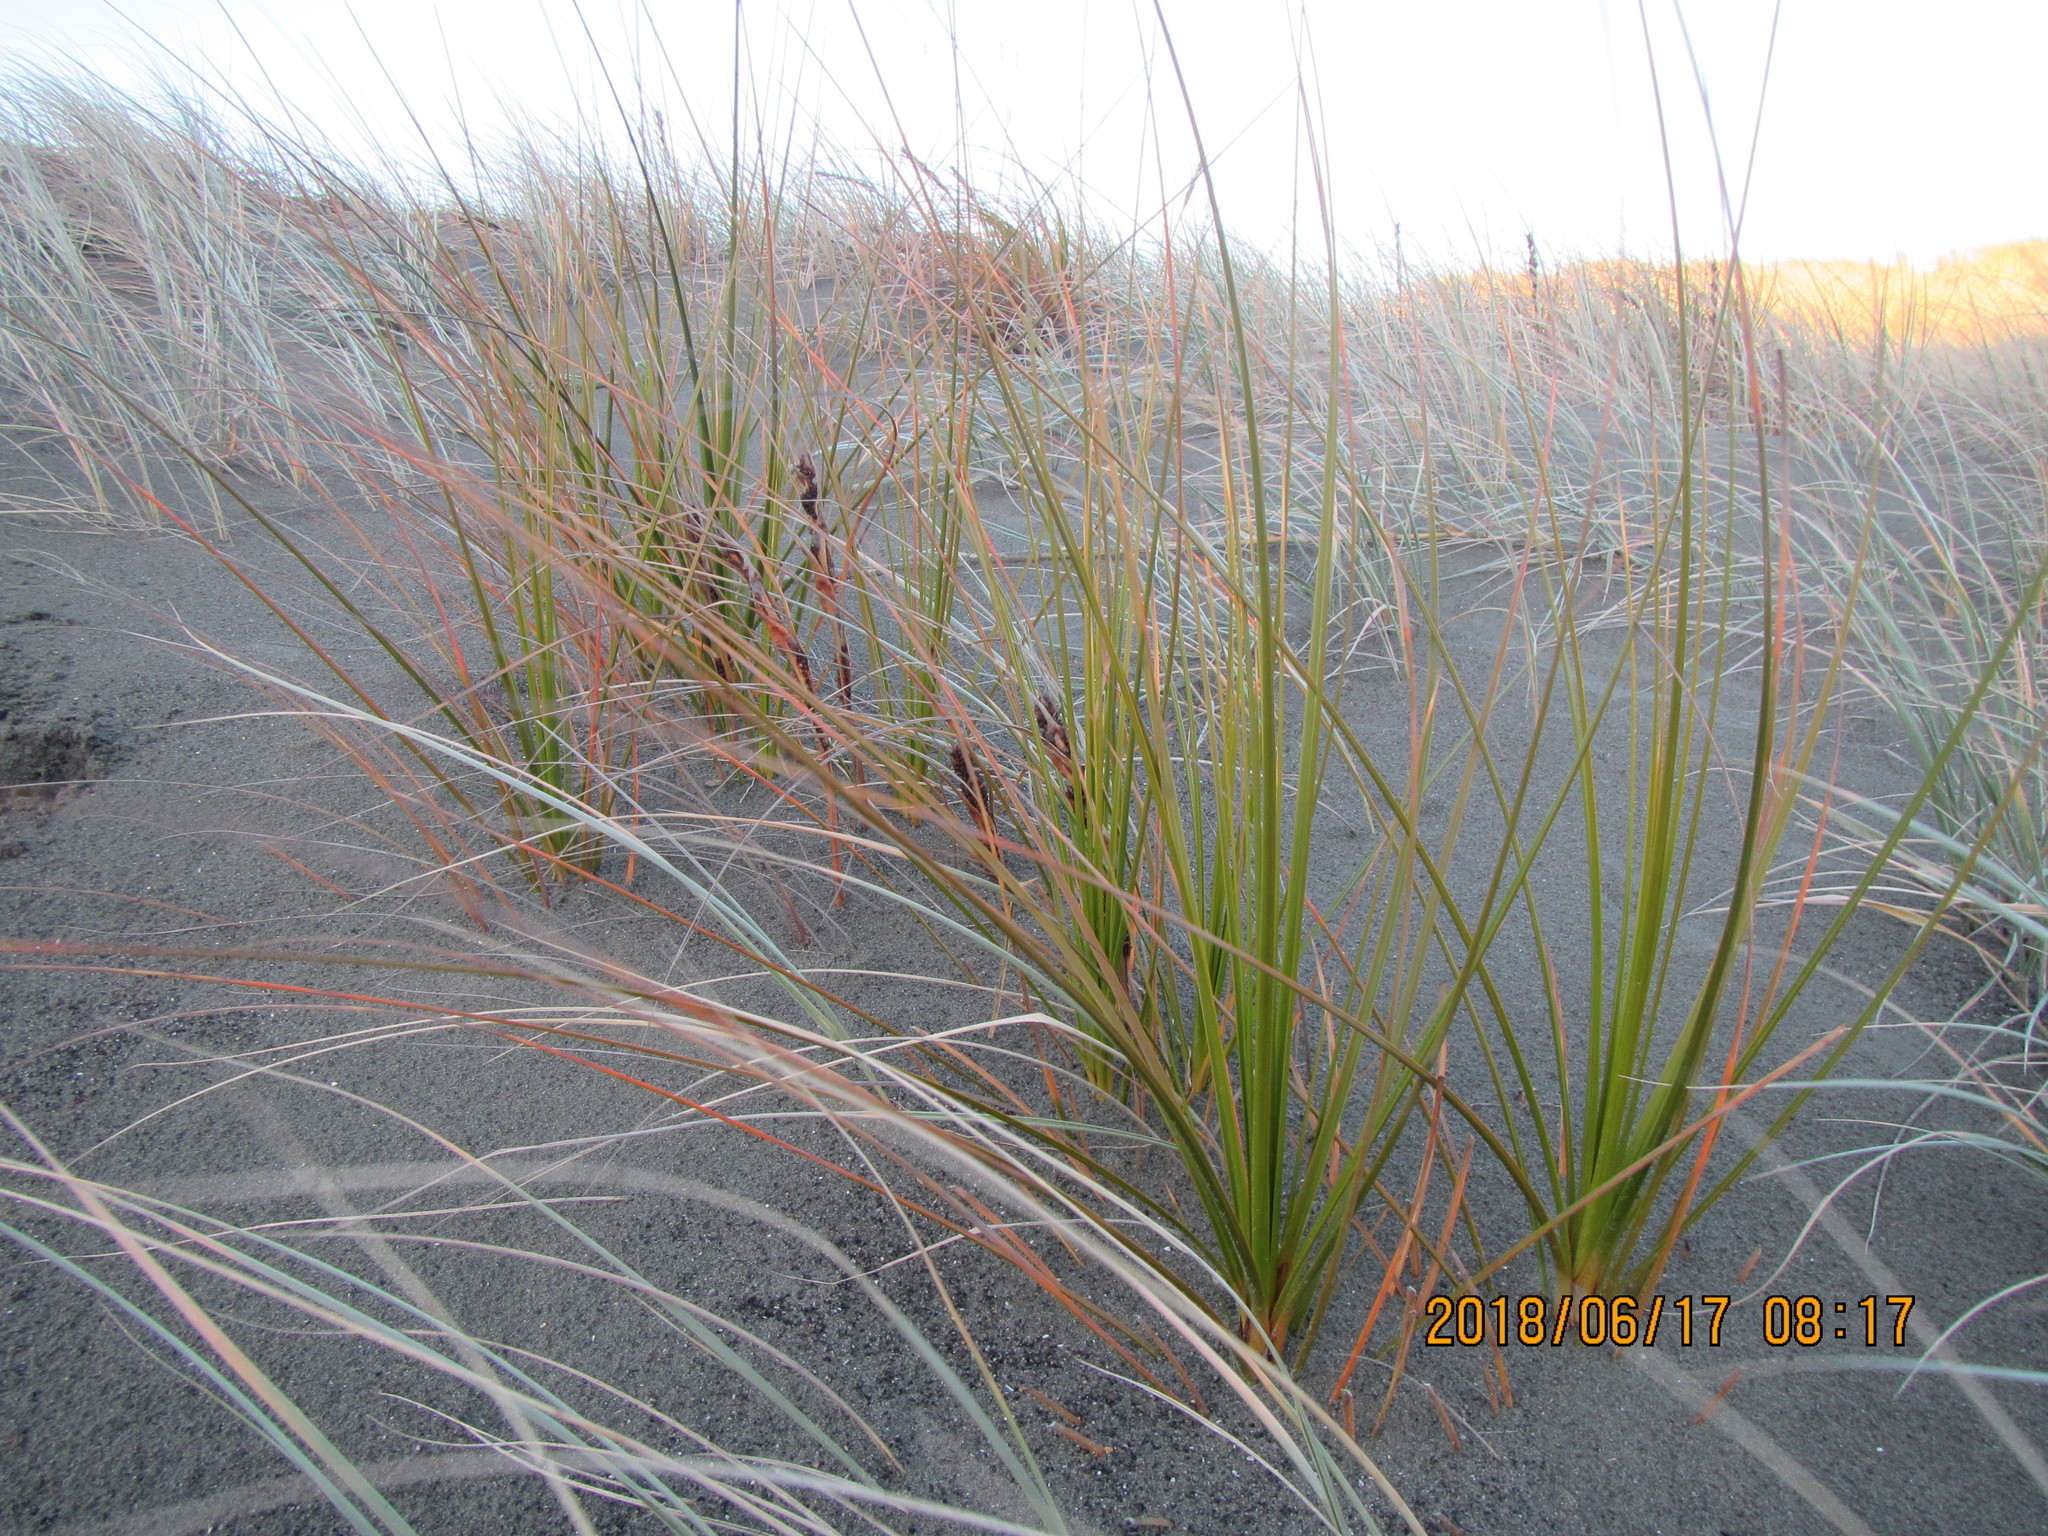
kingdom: Plantae
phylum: Tracheophyta
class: Liliopsida
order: Poales
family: Cyperaceae
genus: Ficinia
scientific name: Ficinia spiralis
